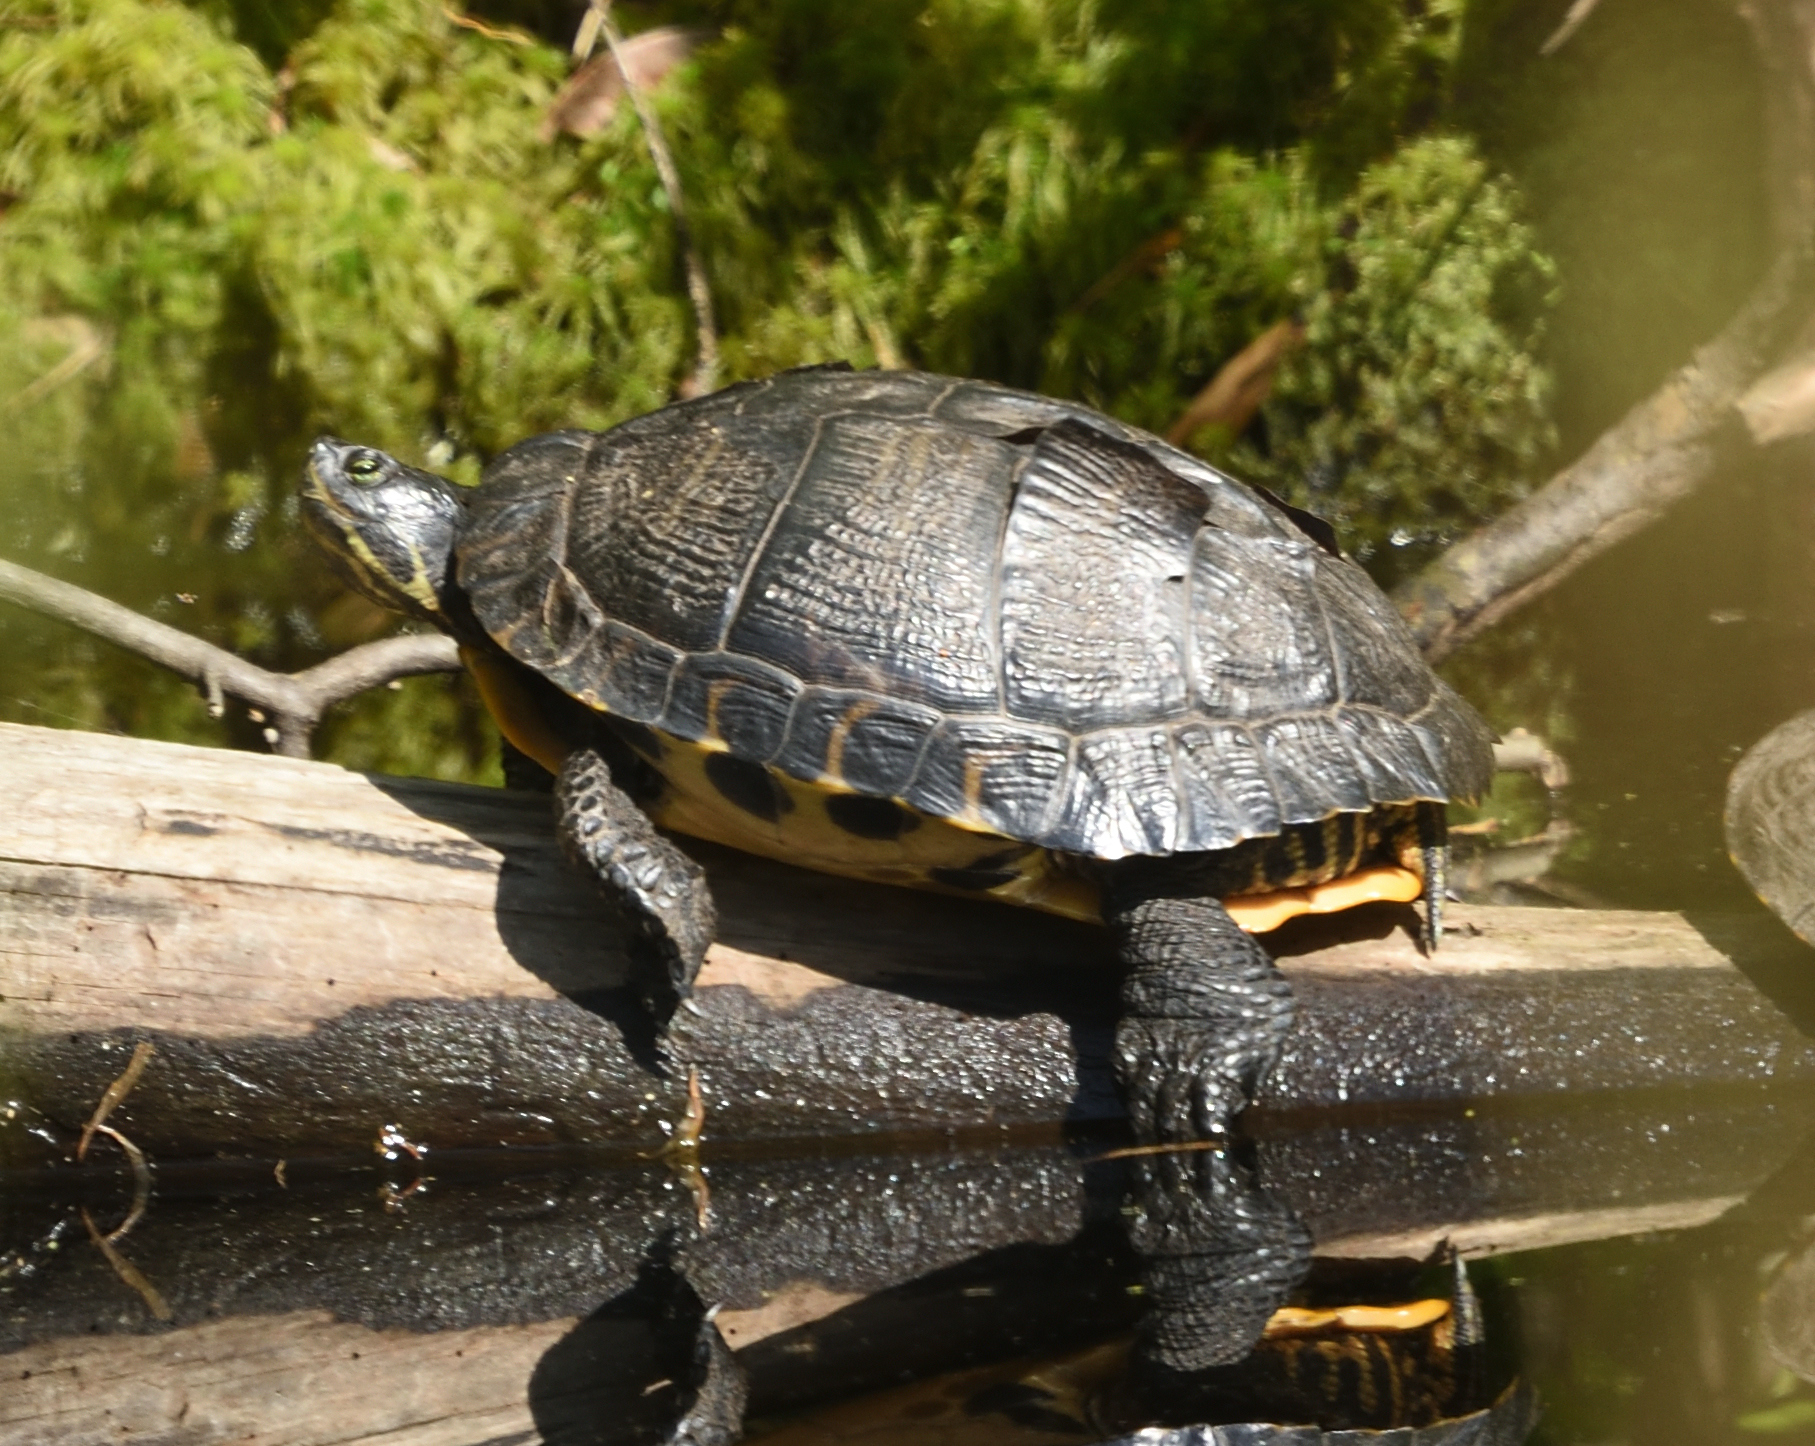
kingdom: Animalia
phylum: Chordata
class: Testudines
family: Emydidae
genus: Trachemys
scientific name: Trachemys scripta
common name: Slider
